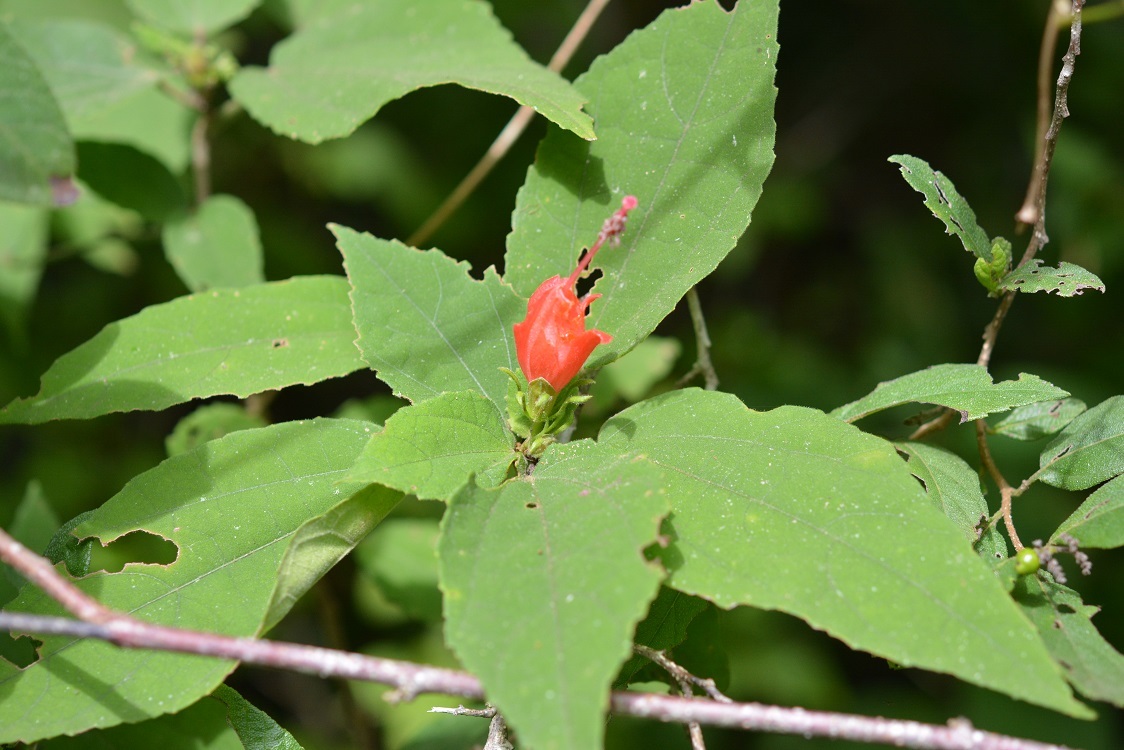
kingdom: Plantae
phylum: Tracheophyta
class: Magnoliopsida
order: Malvales
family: Malvaceae
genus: Malvaviscus
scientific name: Malvaviscus arboreus
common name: Wax mallow
